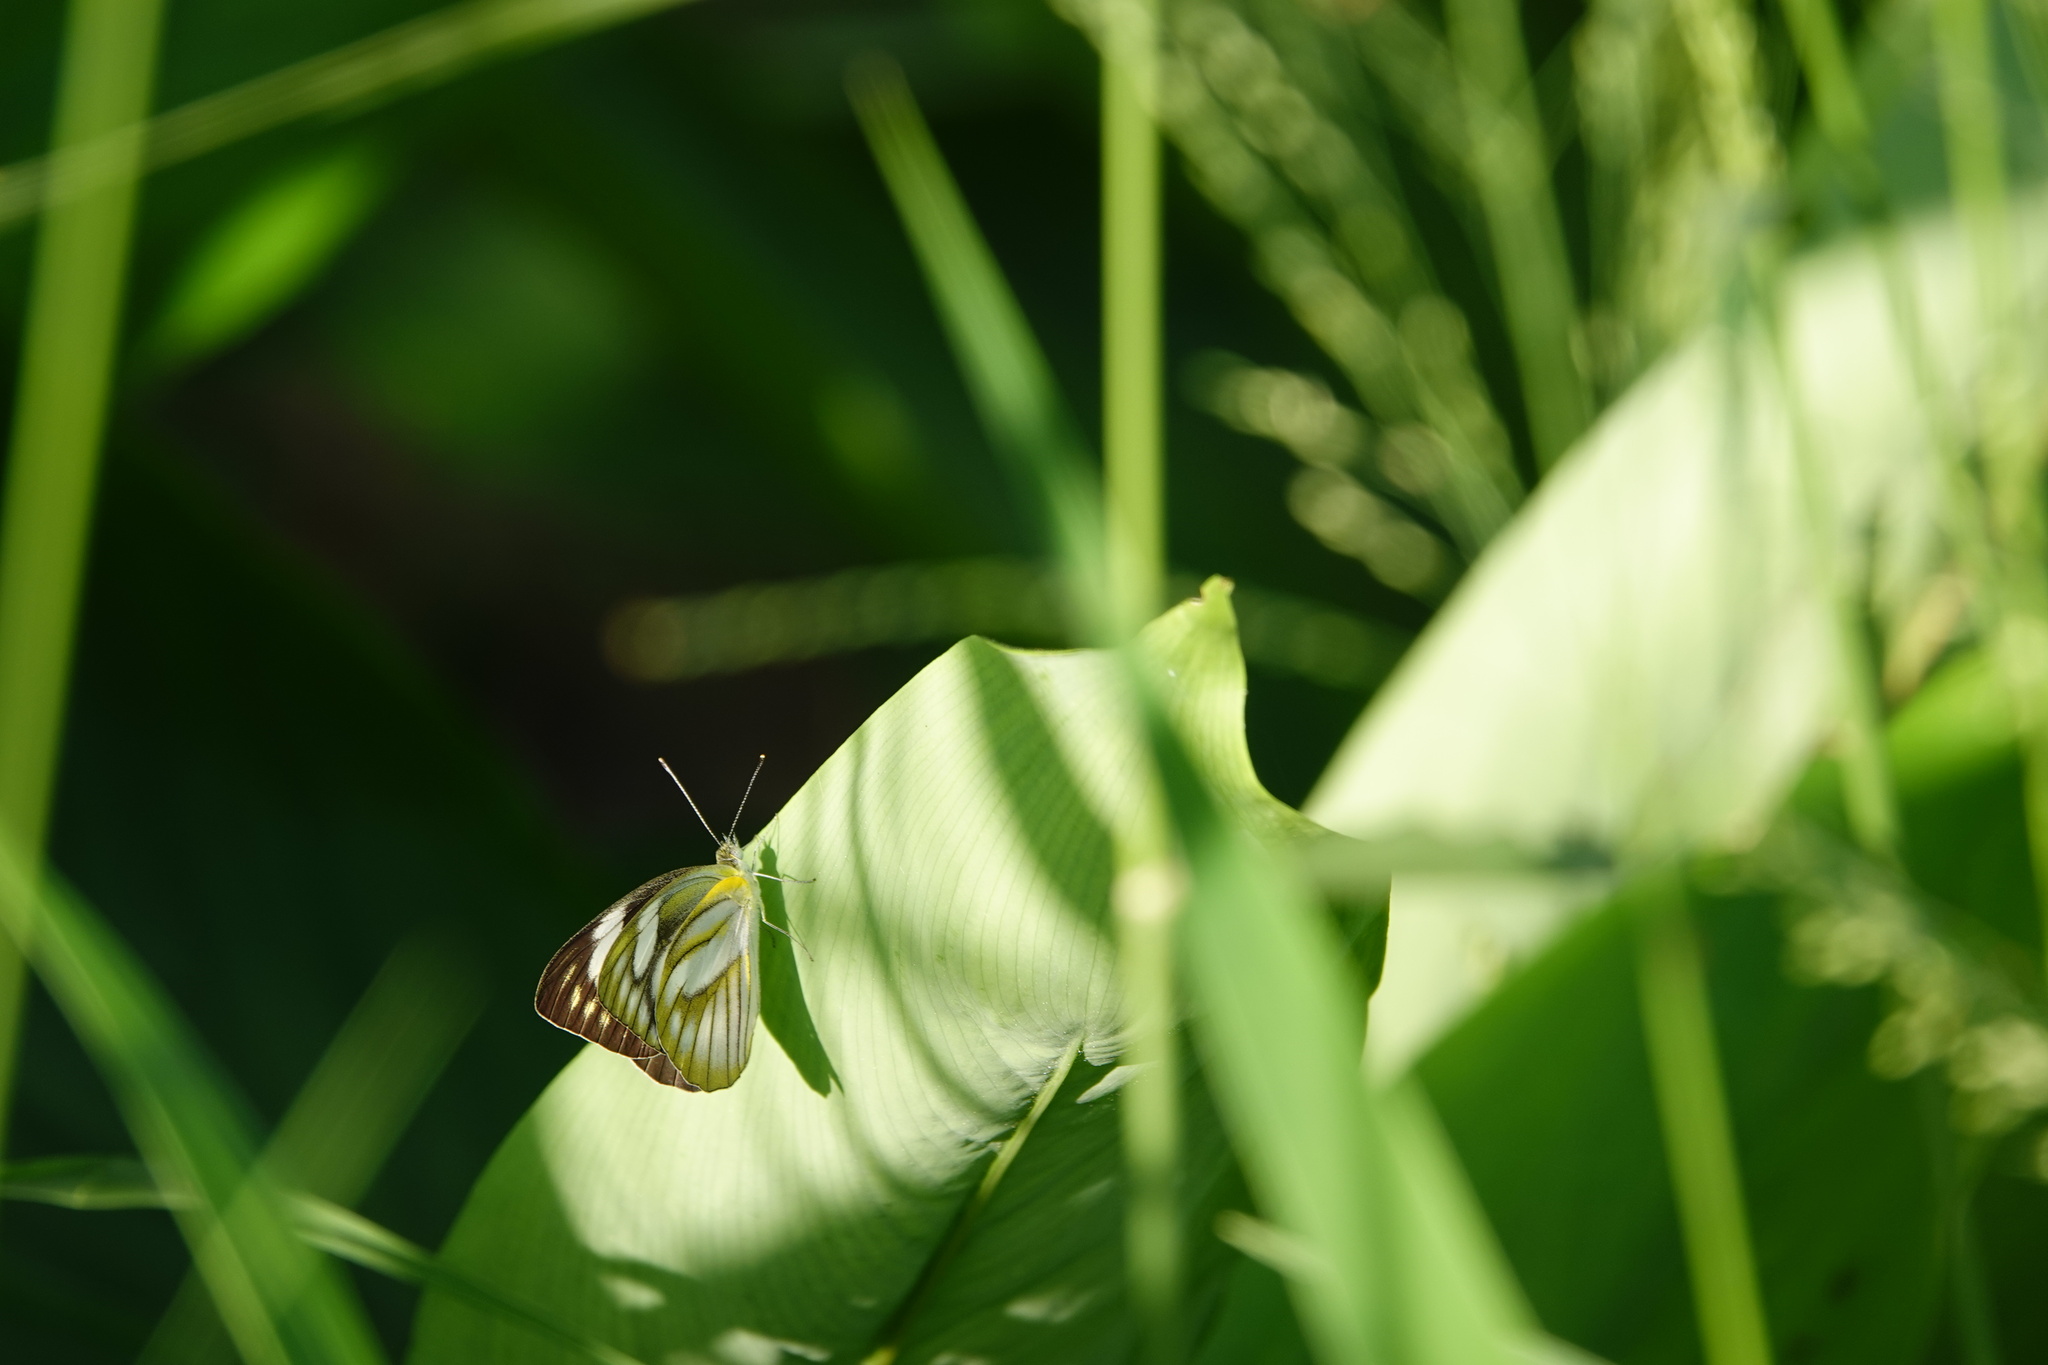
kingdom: Animalia
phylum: Arthropoda
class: Insecta
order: Lepidoptera
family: Pieridae
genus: Appias
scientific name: Appias olferna
